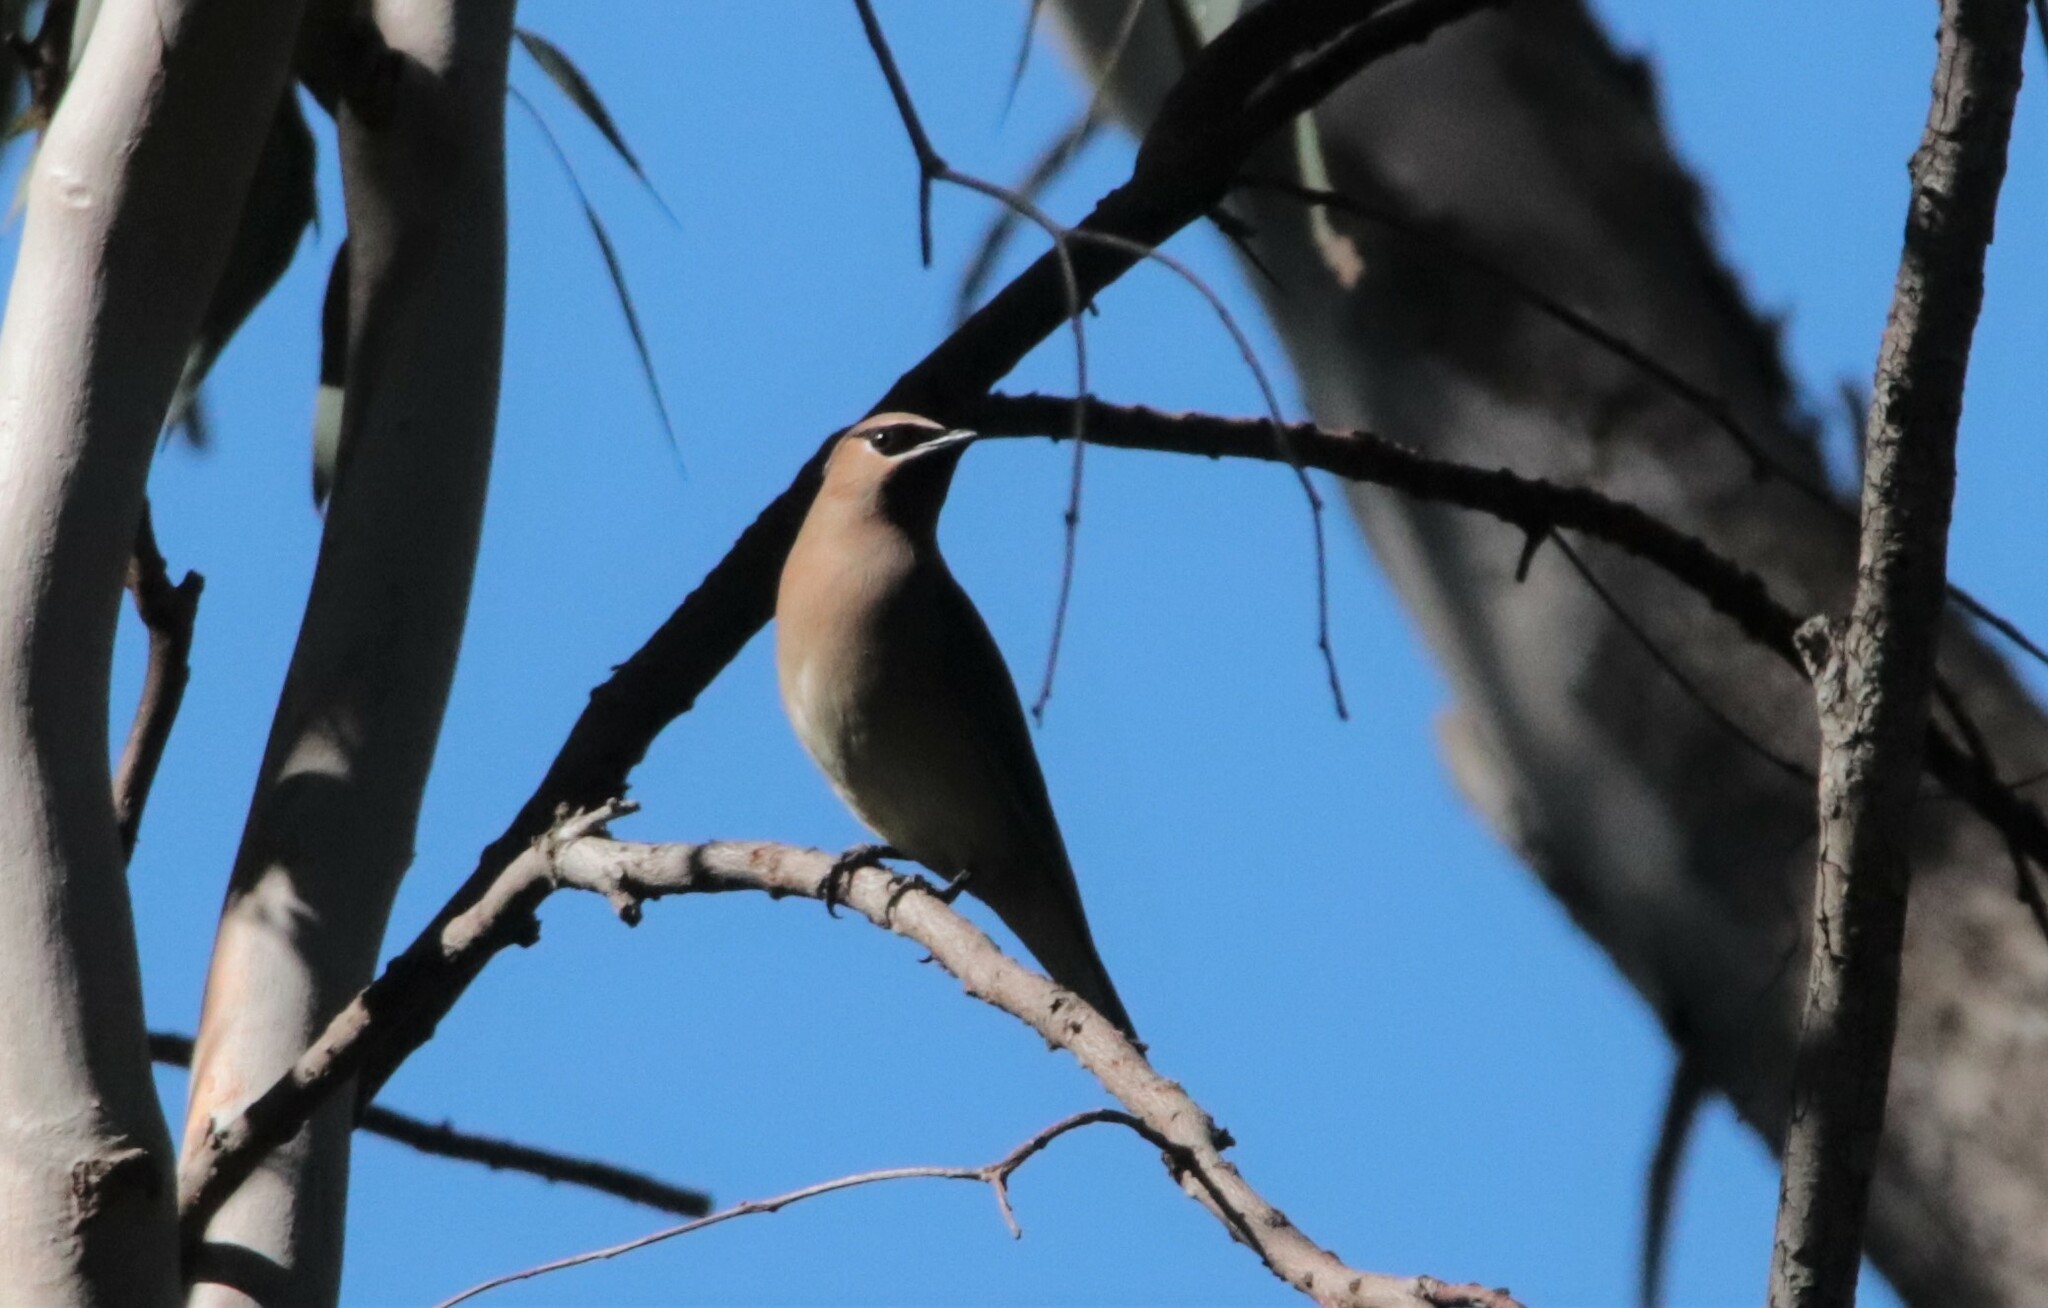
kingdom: Animalia
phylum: Chordata
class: Aves
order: Passeriformes
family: Bombycillidae
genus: Bombycilla
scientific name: Bombycilla cedrorum
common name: Cedar waxwing
